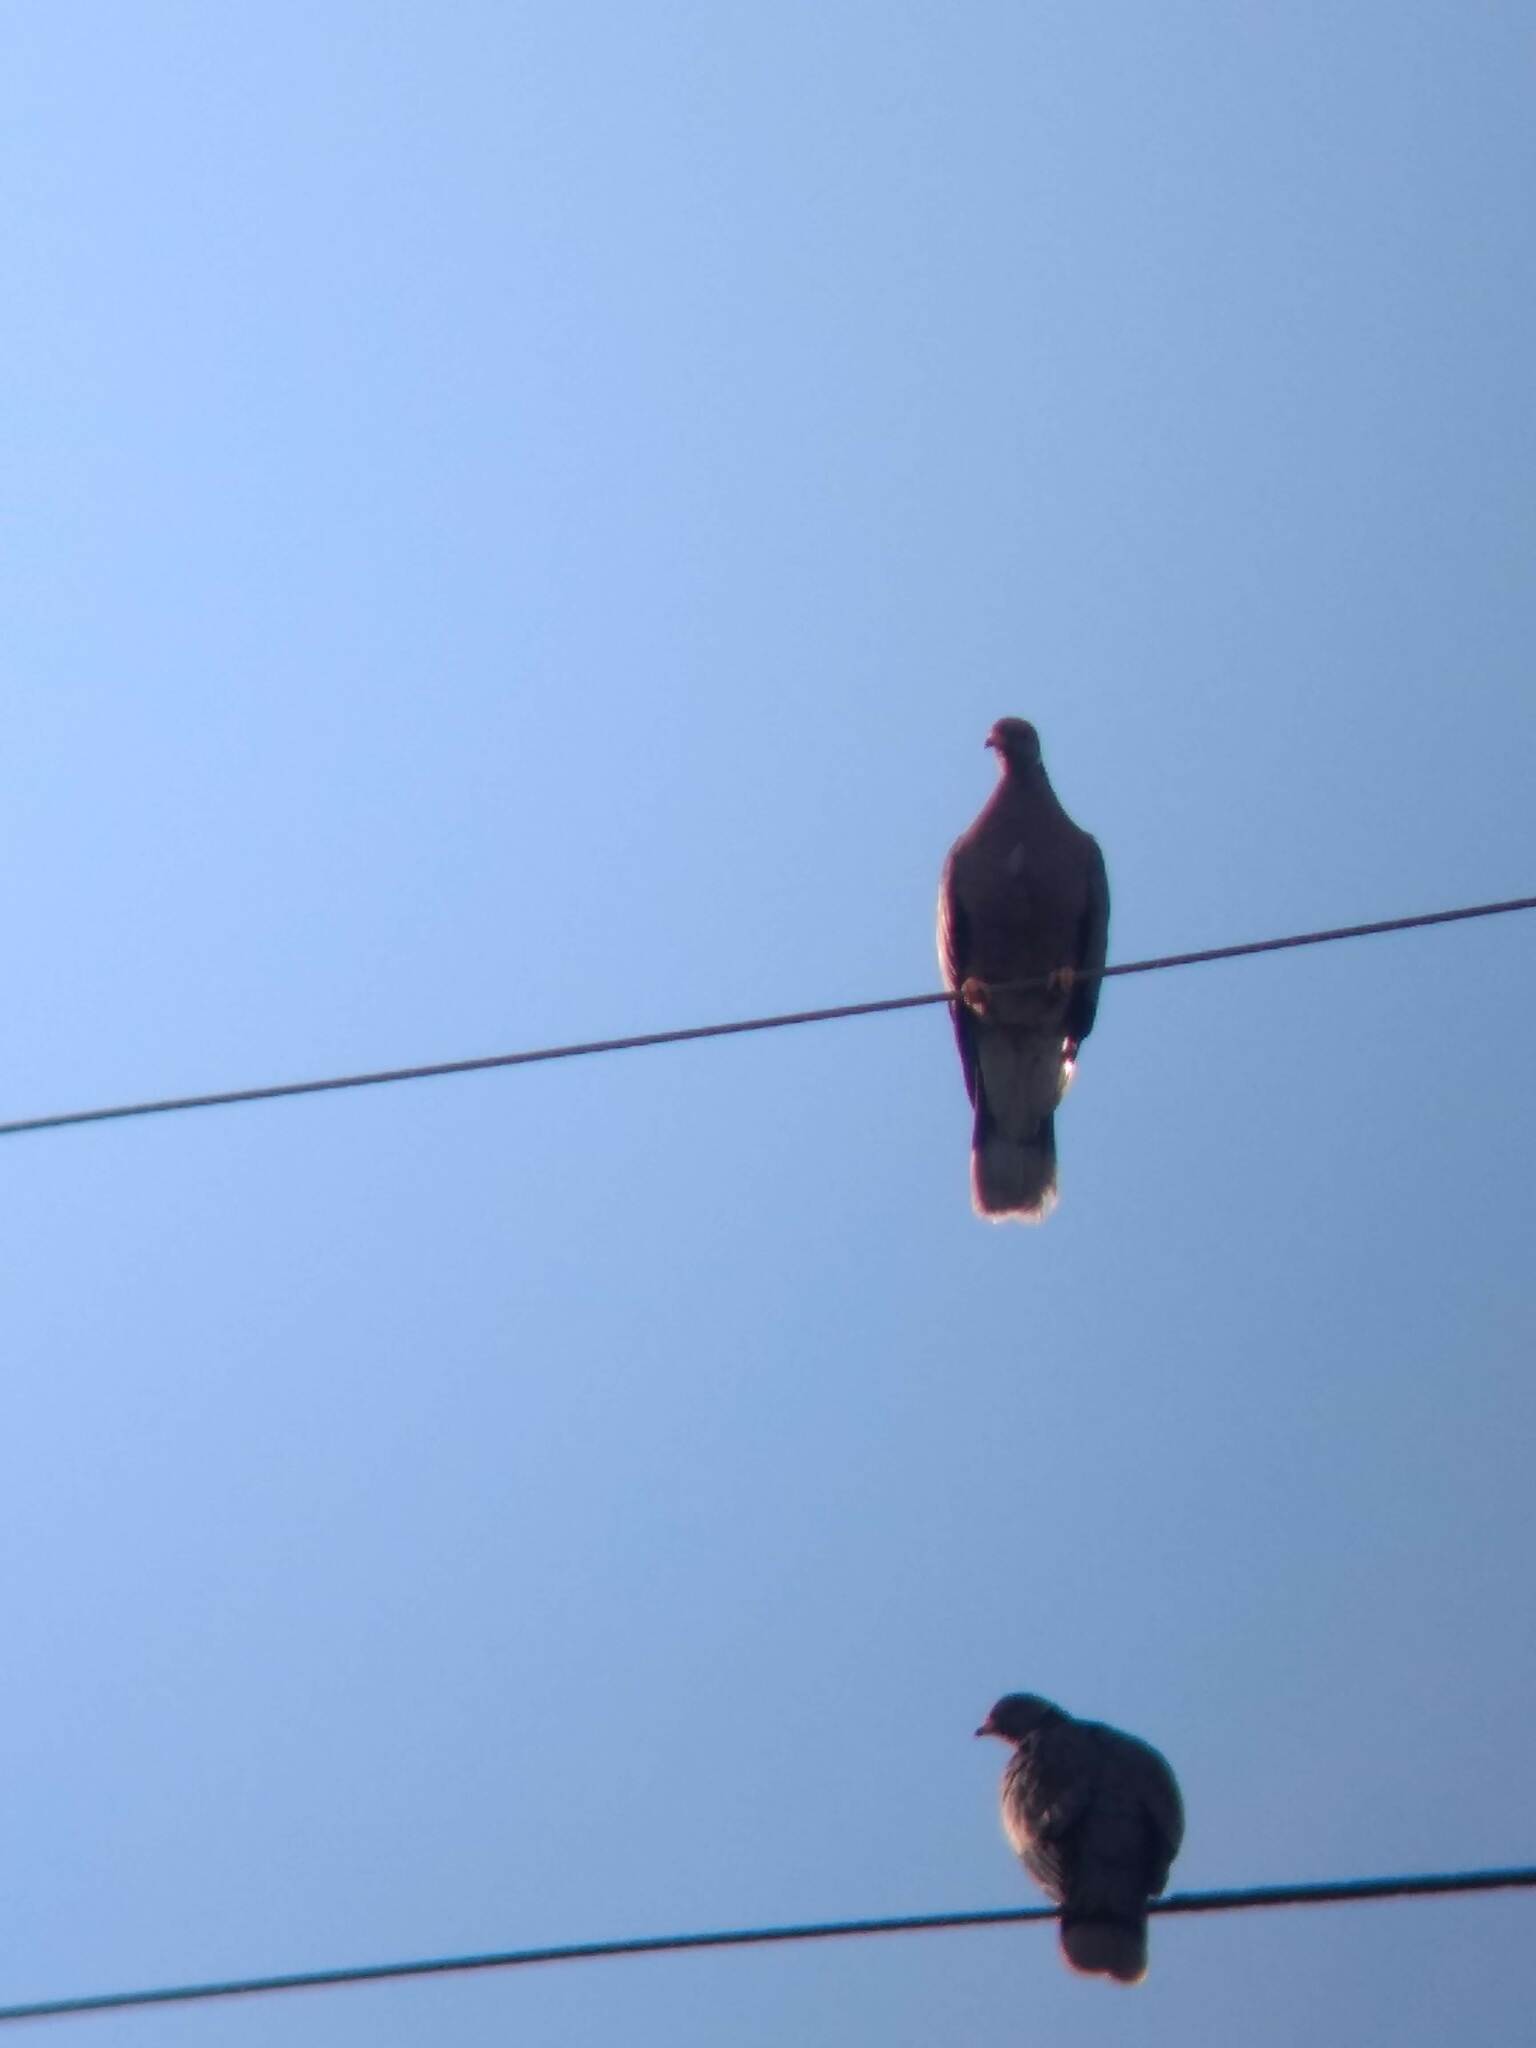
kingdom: Animalia
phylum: Chordata
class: Aves
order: Columbiformes
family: Columbidae
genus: Patagioenas
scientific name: Patagioenas fasciata
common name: Band-tailed pigeon
